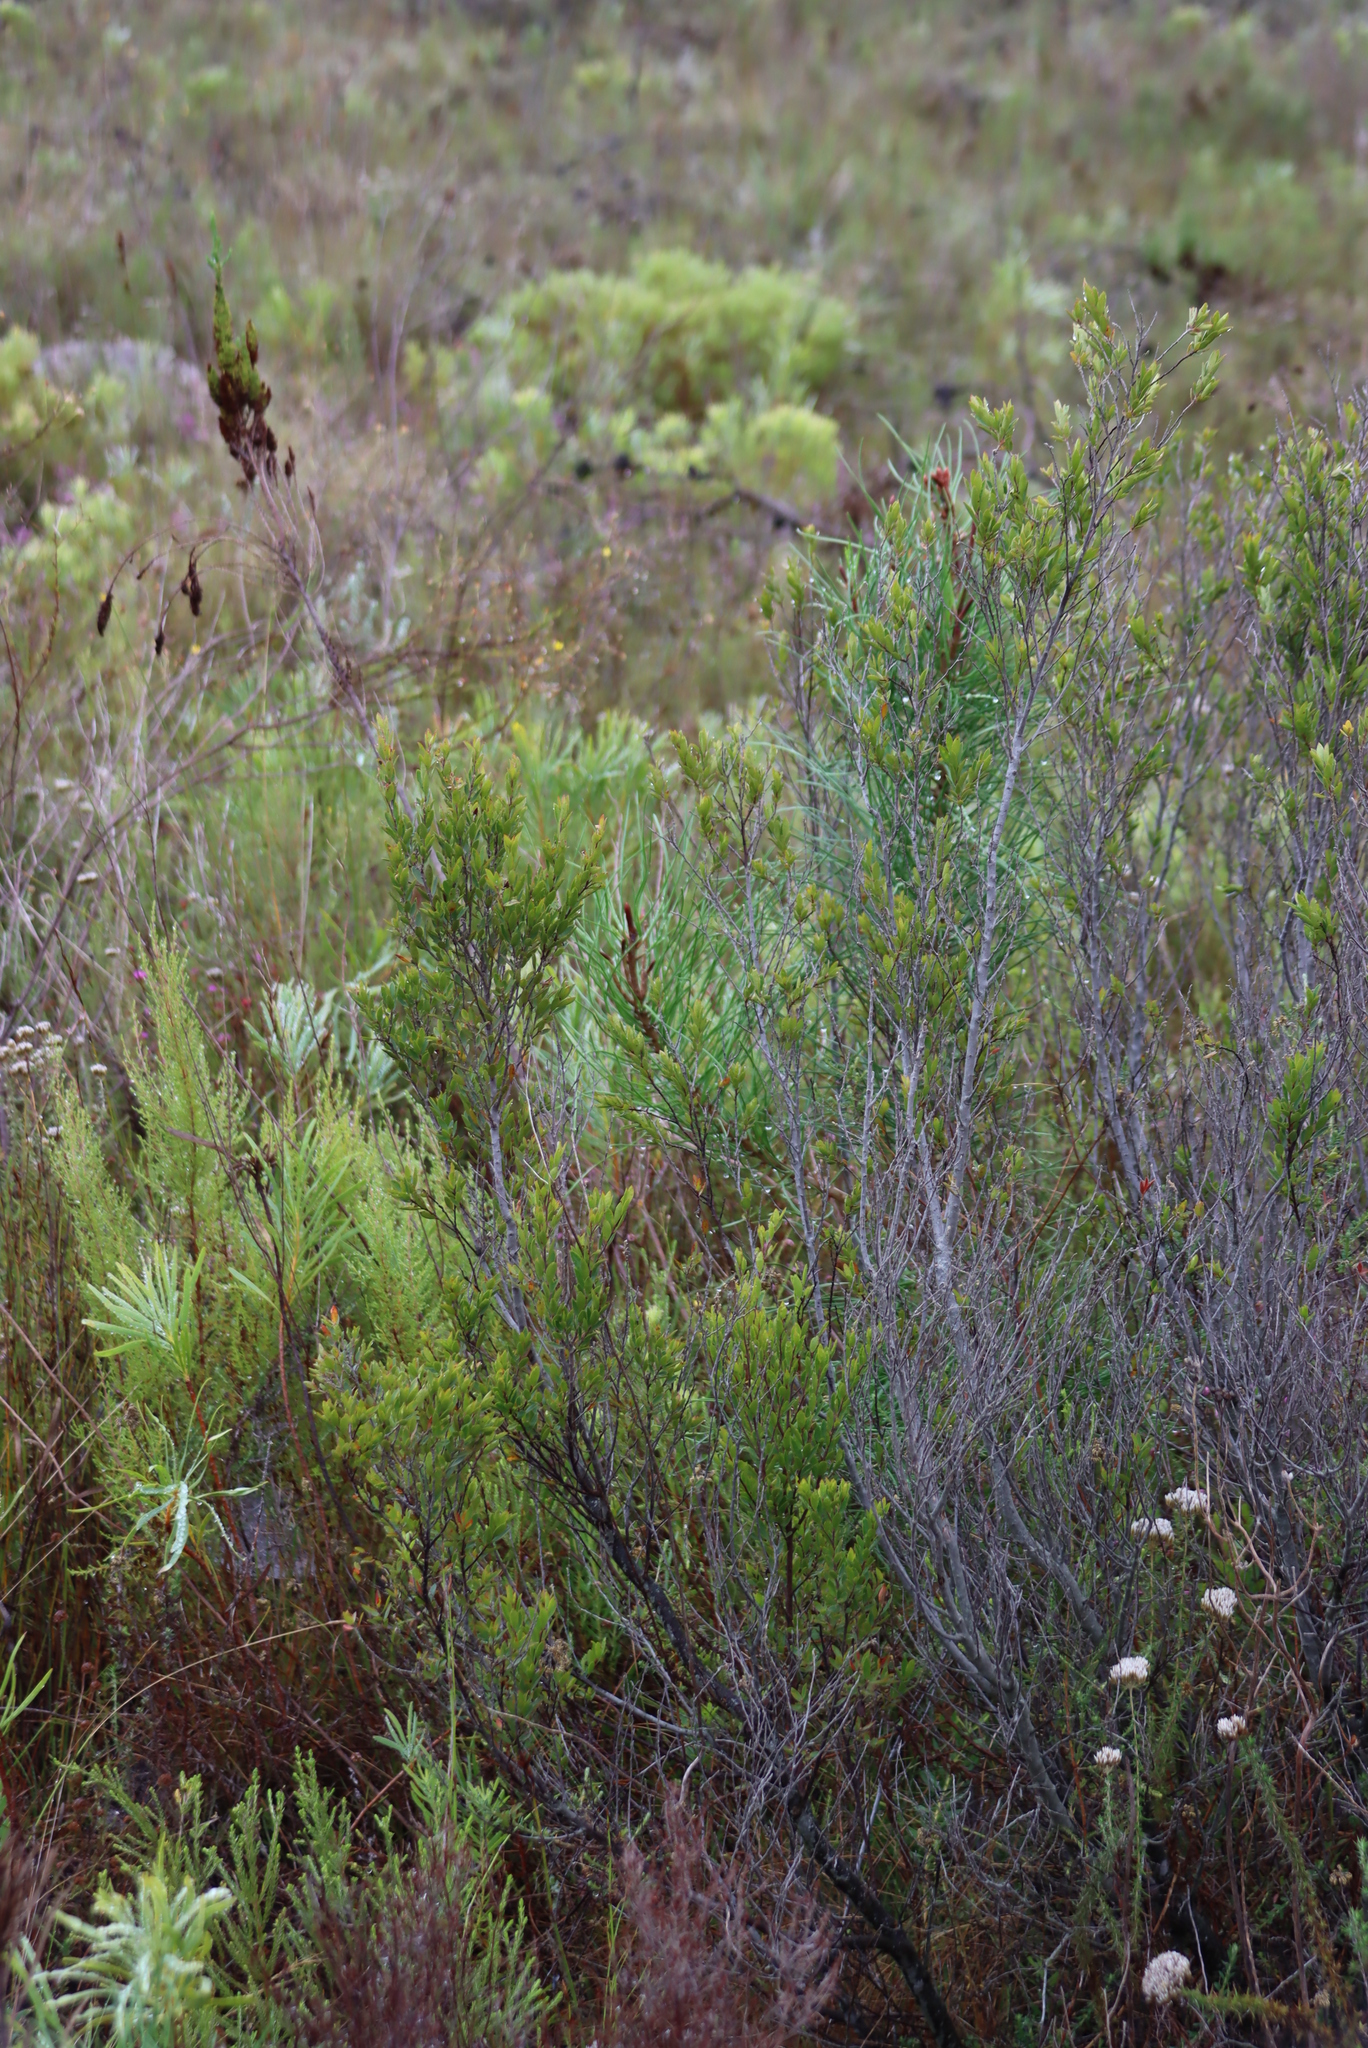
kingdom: Plantae
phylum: Tracheophyta
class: Pinopsida
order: Pinales
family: Pinaceae
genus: Pinus
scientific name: Pinus pinaster
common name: Maritime pine
